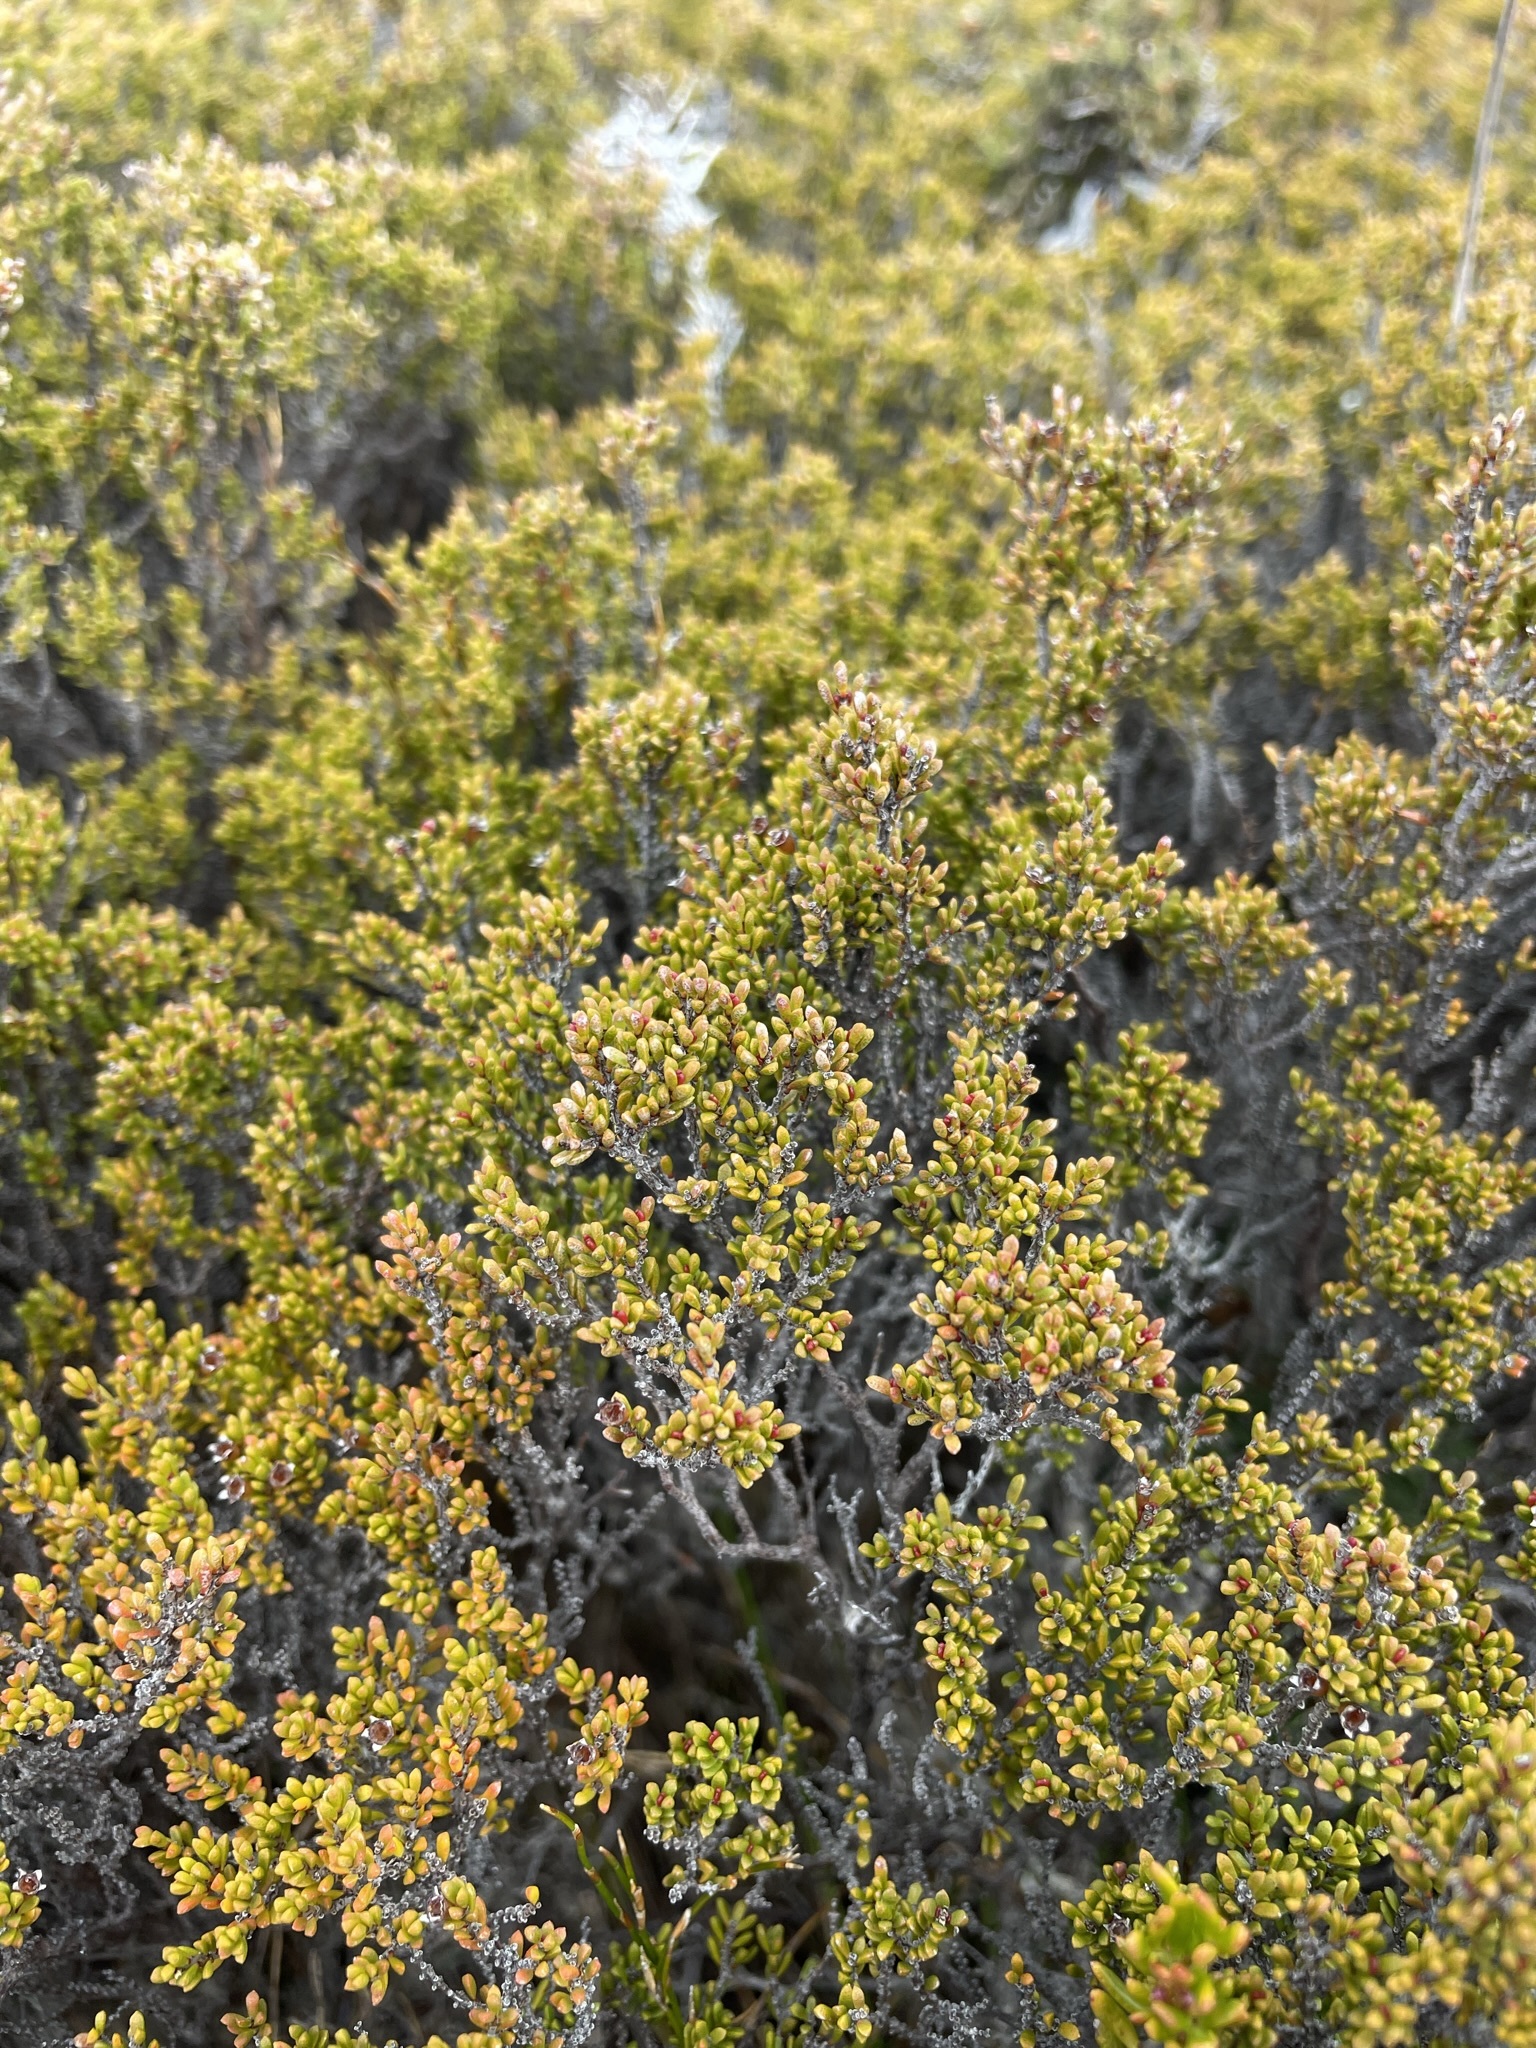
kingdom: Plantae
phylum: Tracheophyta
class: Magnoliopsida
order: Myrtales
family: Myrtaceae
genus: Baeckea
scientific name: Baeckea gunniana
